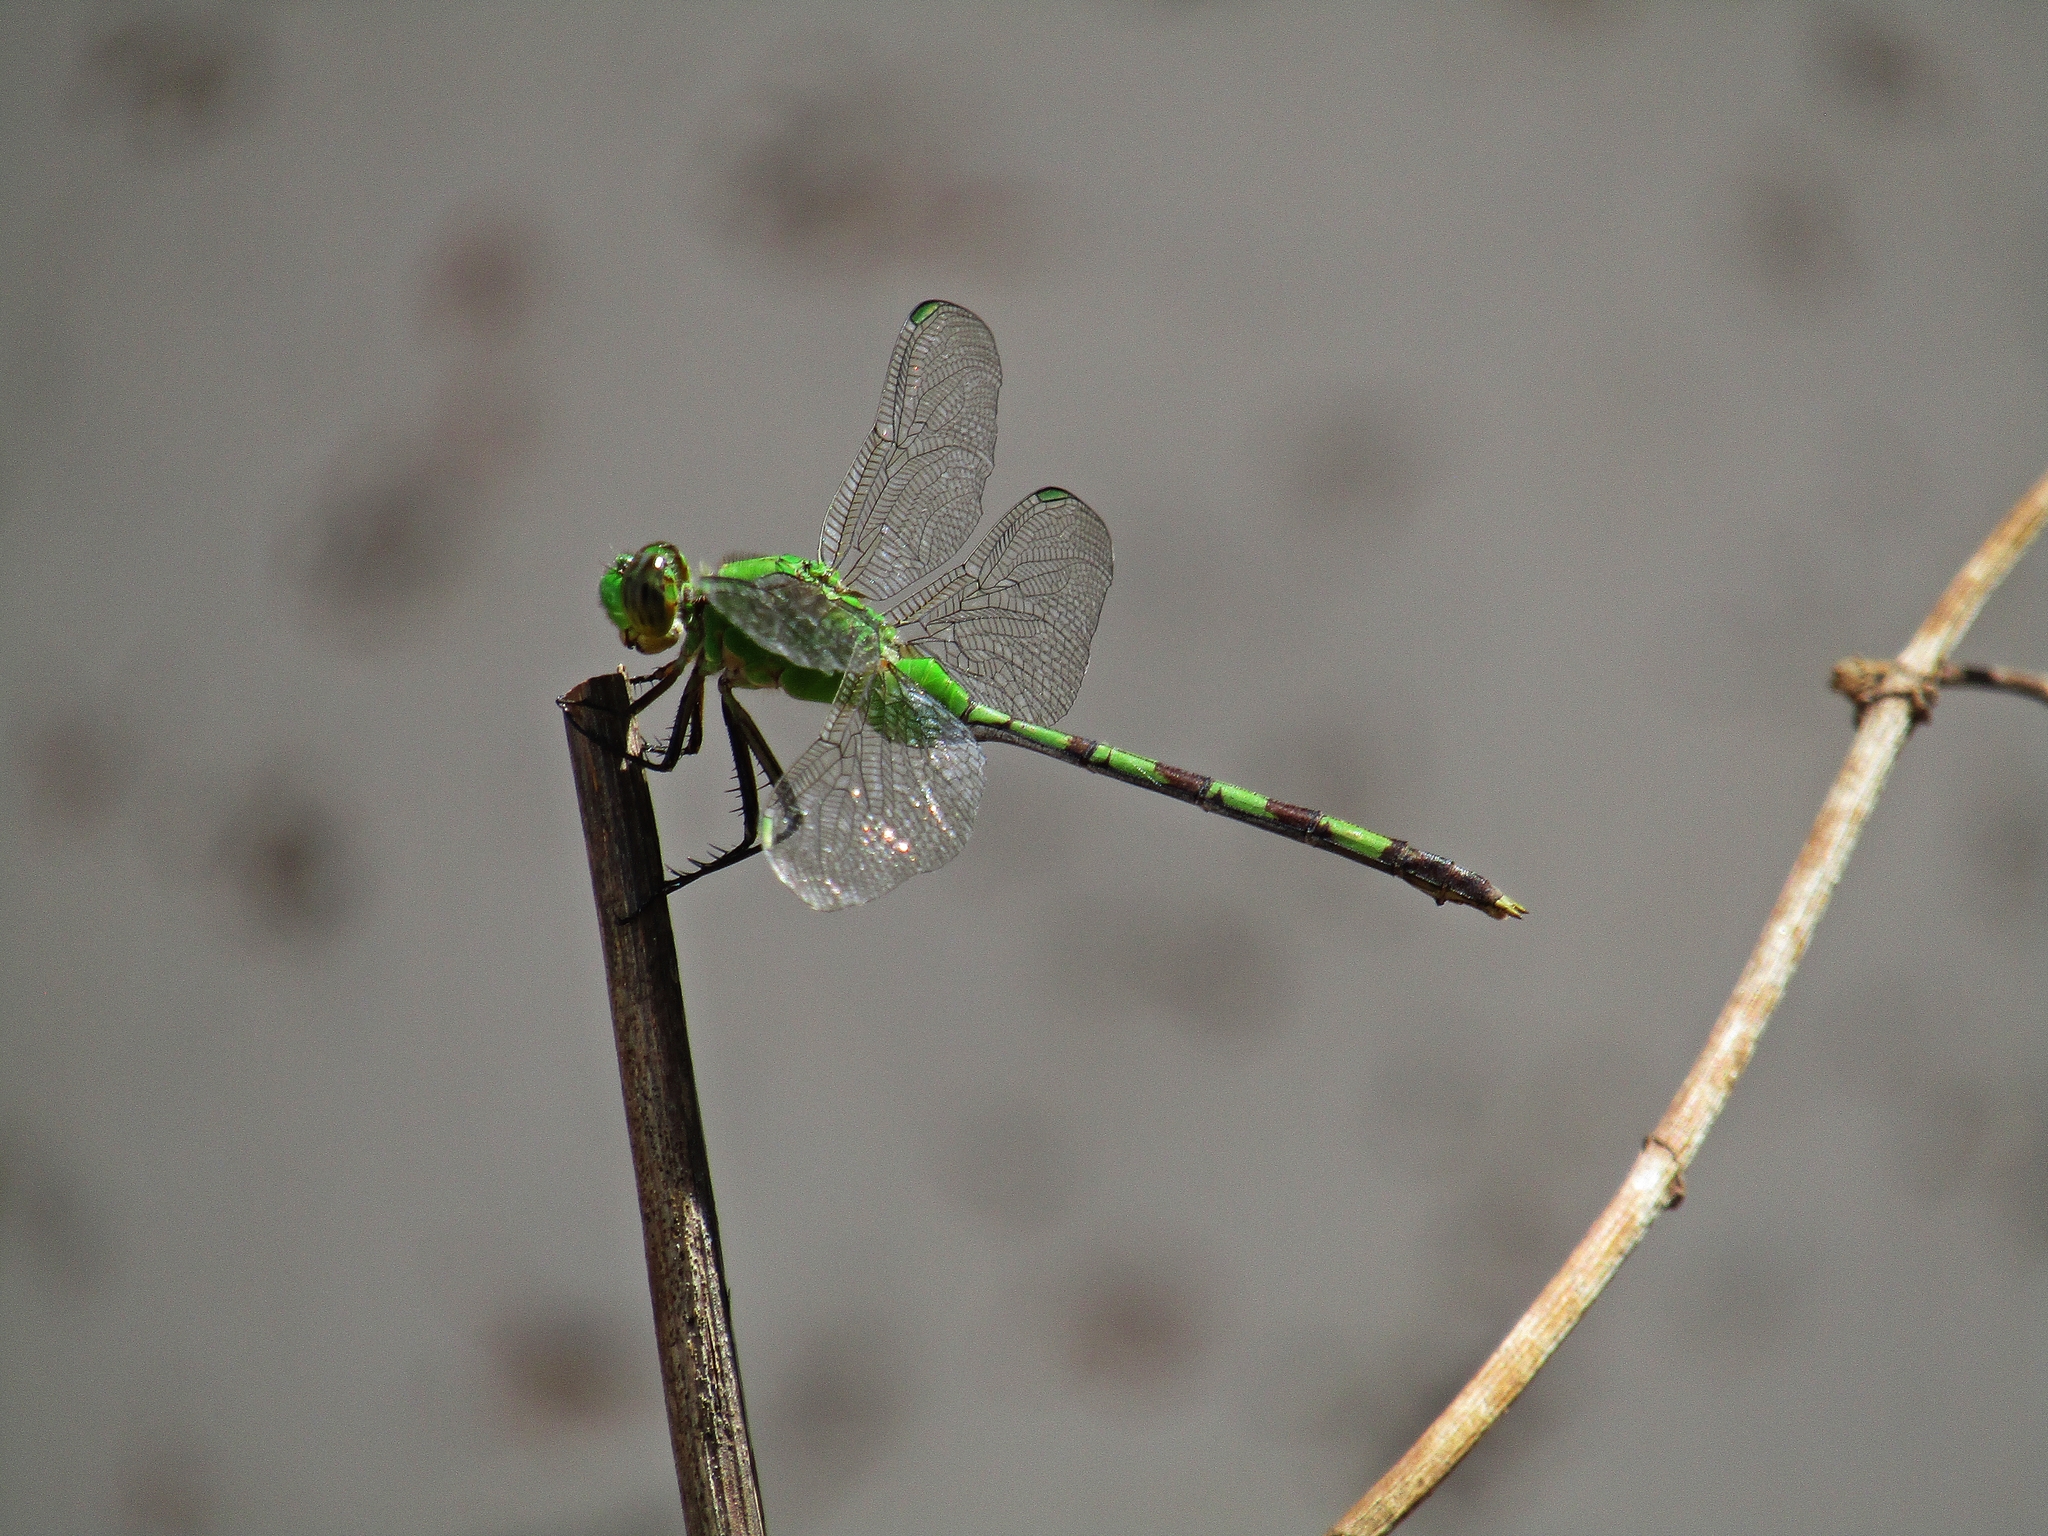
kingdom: Animalia
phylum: Arthropoda
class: Insecta
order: Odonata
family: Libellulidae
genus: Erythemis
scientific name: Erythemis vesiculosa
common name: Great pondhawk
